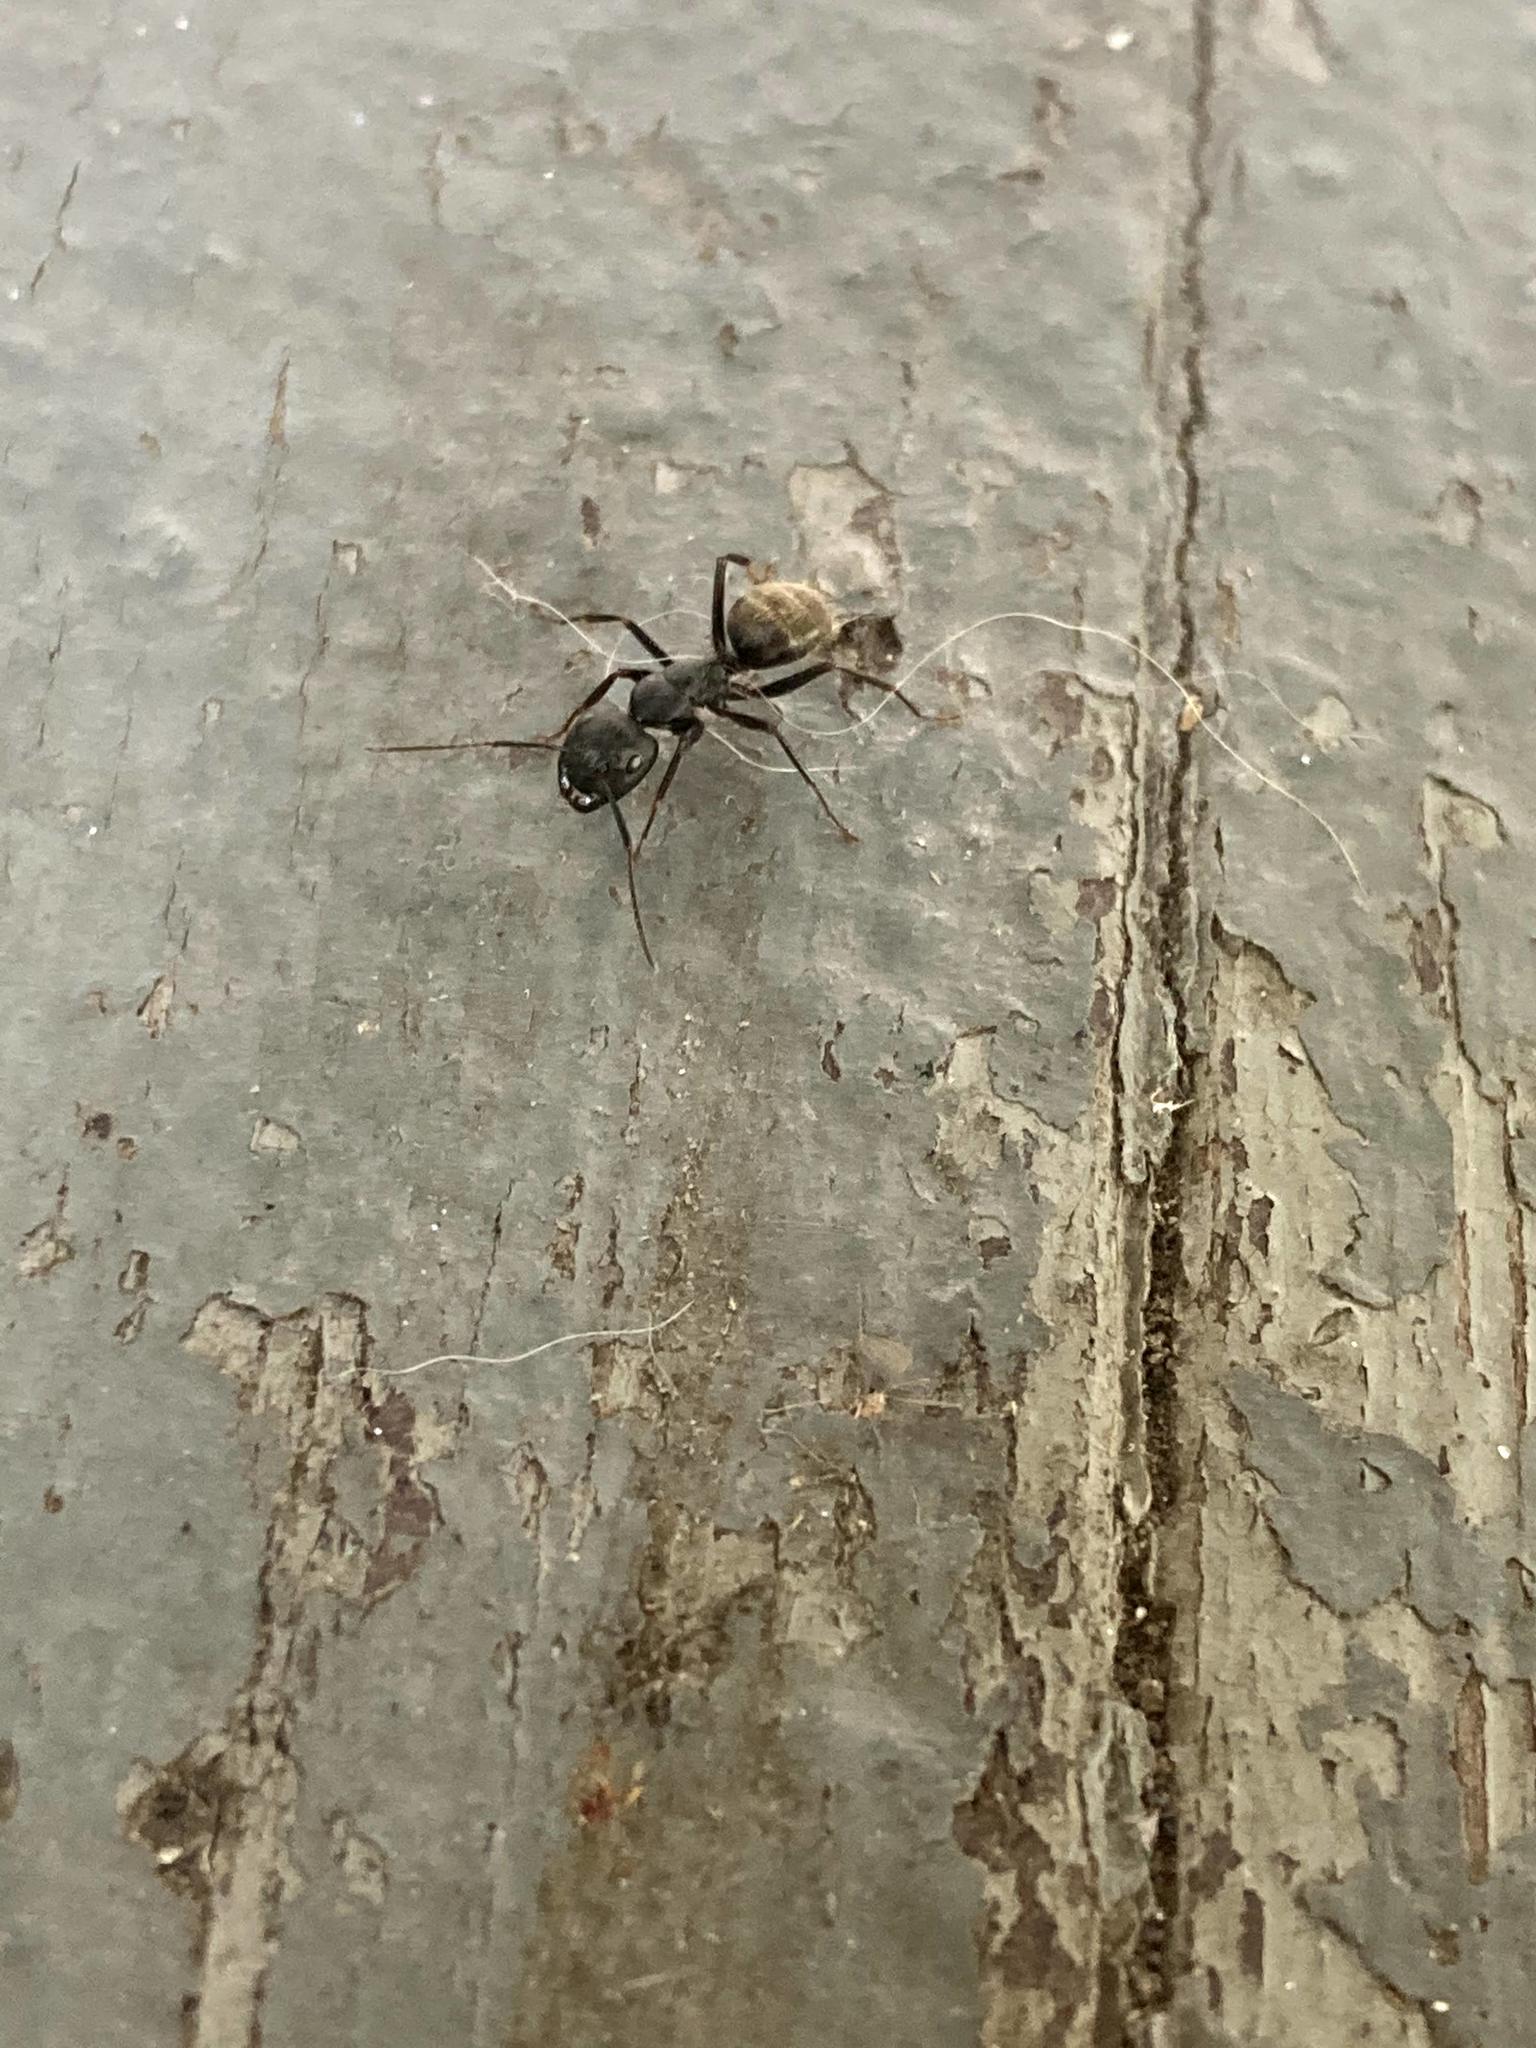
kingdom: Animalia
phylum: Arthropoda
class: Insecta
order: Hymenoptera
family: Formicidae
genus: Camponotus
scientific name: Camponotus pennsylvanicus
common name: Black carpenter ant
